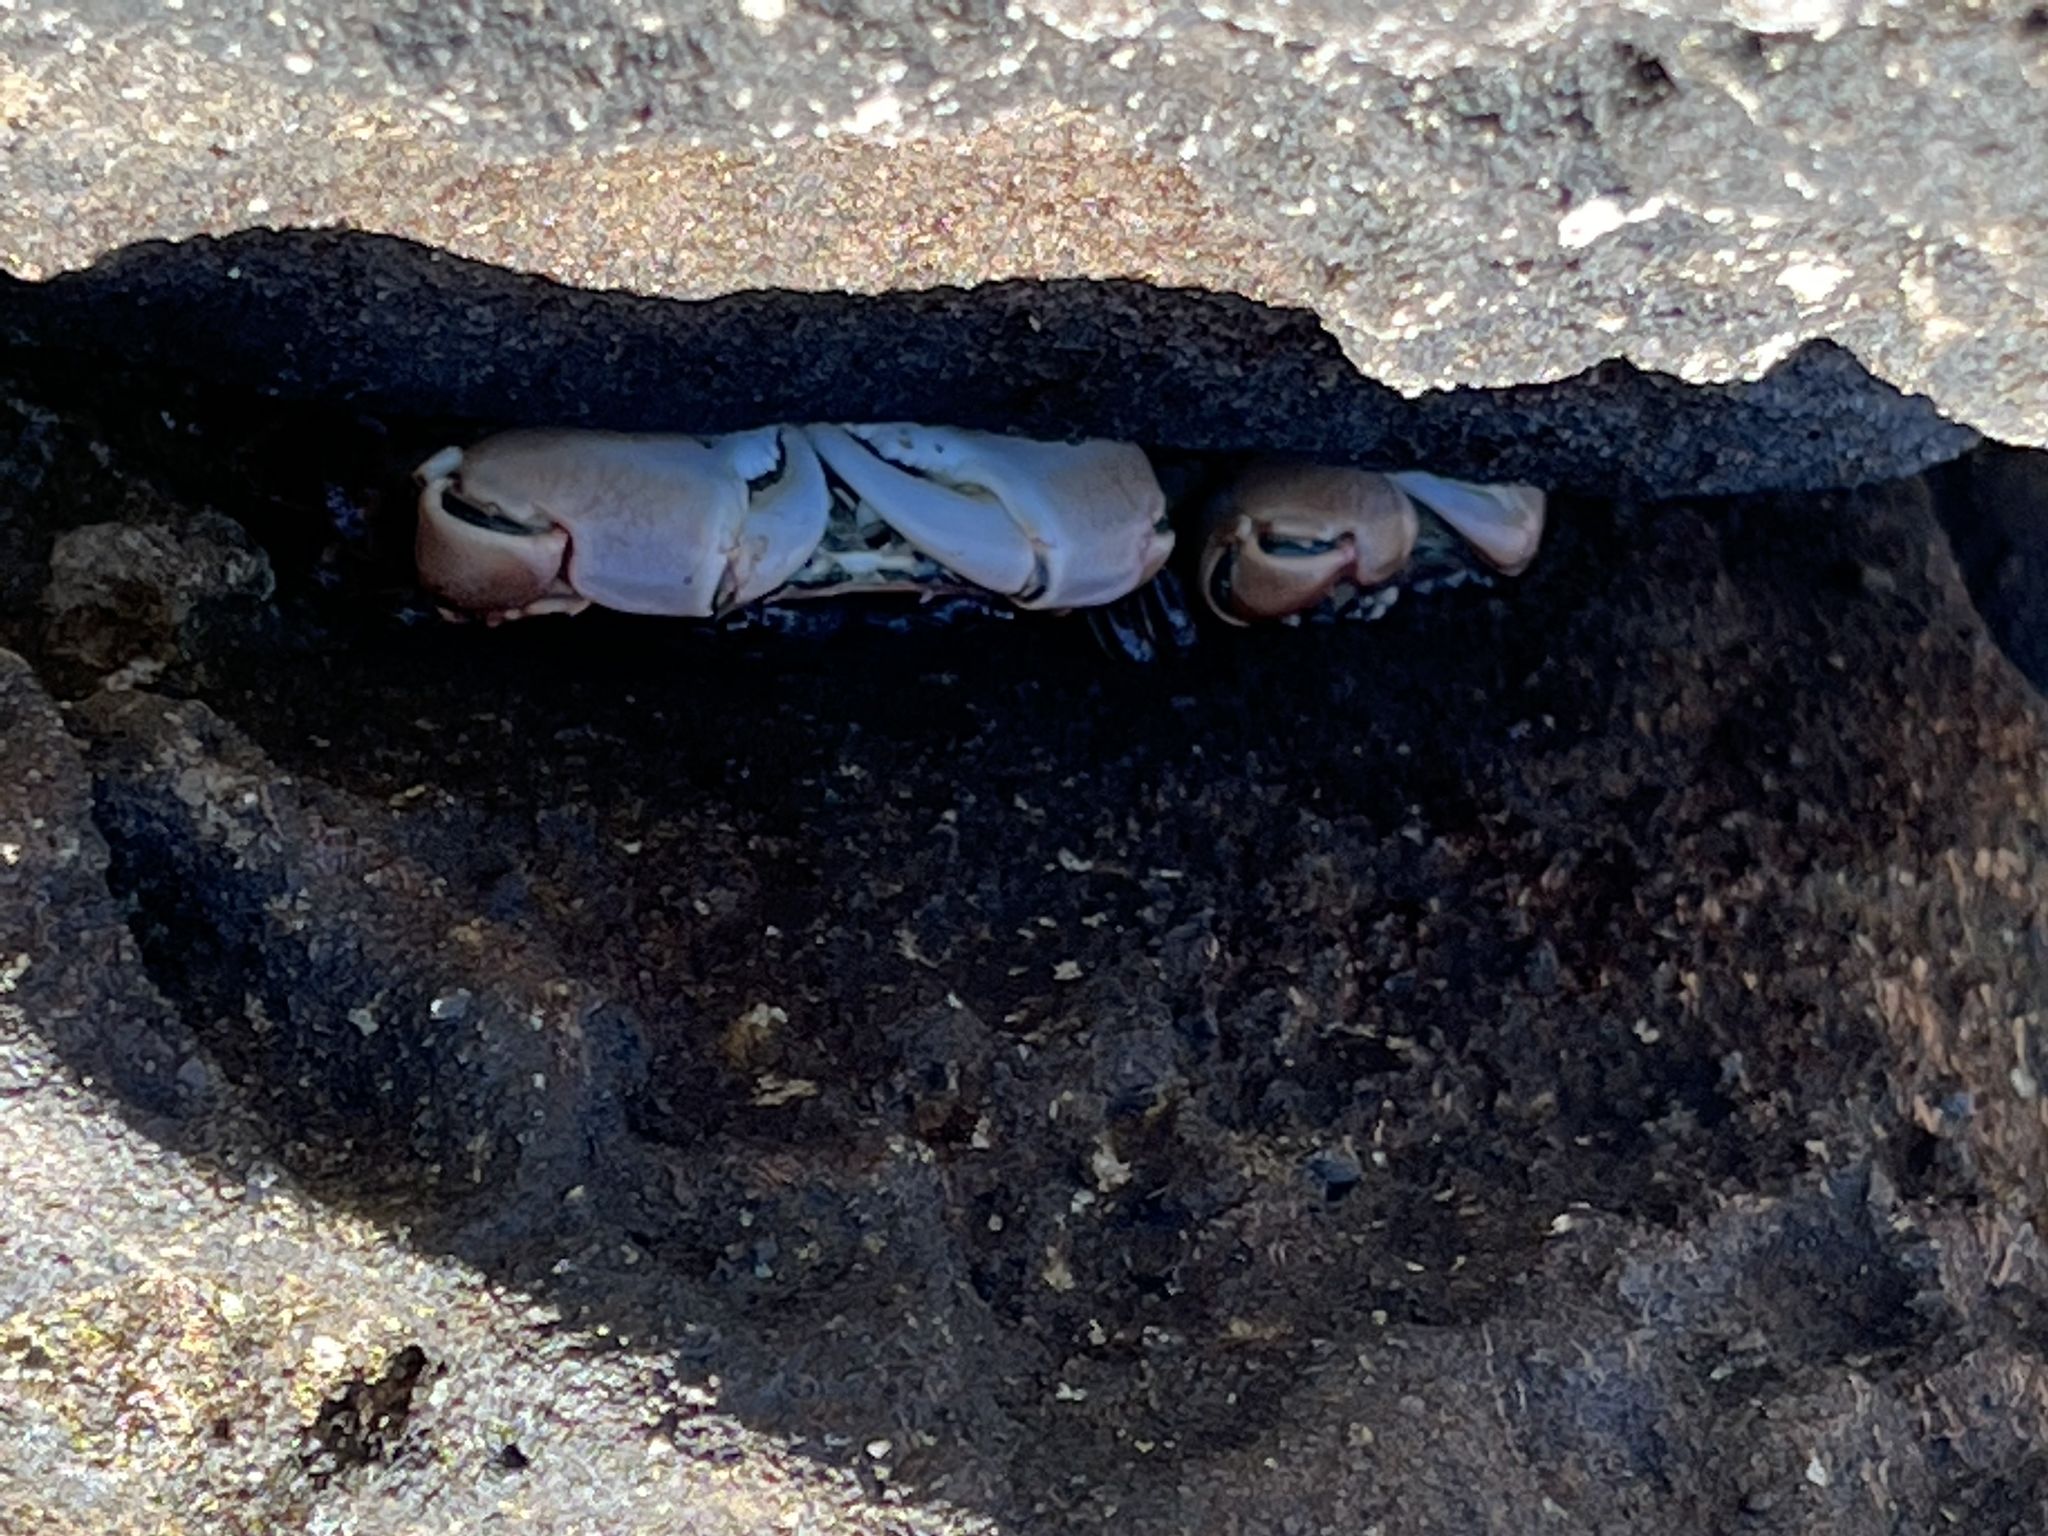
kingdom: Animalia
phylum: Arthropoda
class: Malacostraca
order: Decapoda
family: Grapsidae
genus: Pachygrapsus
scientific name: Pachygrapsus crassipes
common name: Striped shore crab
